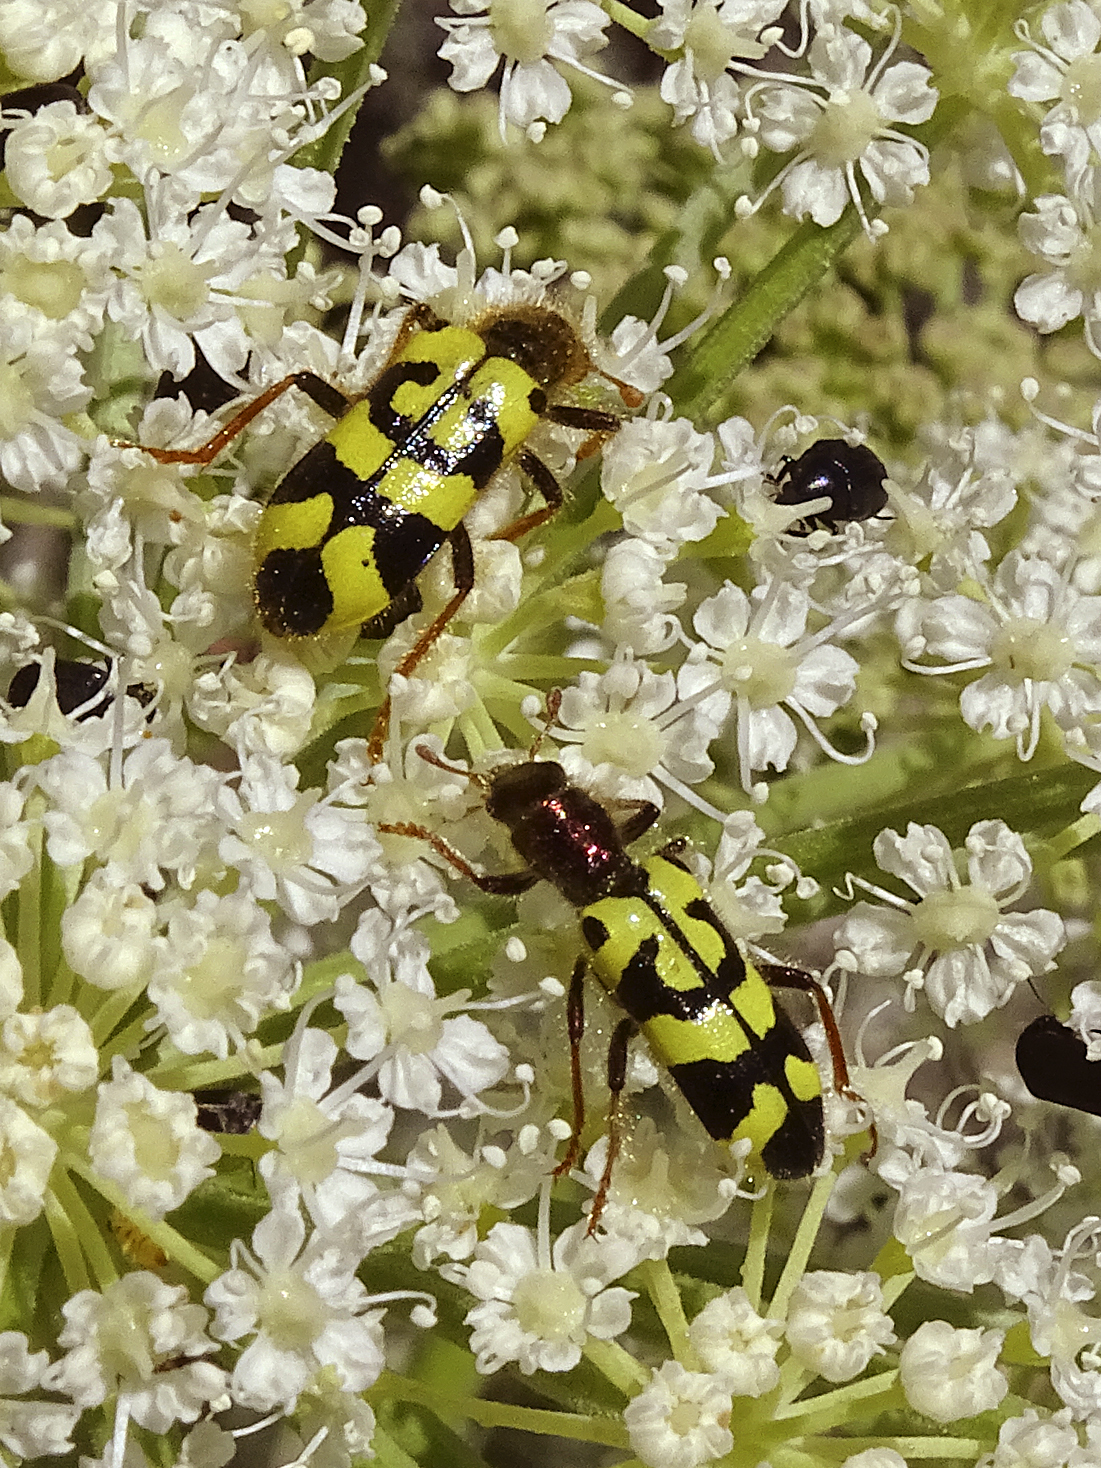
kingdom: Animalia
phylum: Arthropoda
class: Insecta
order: Coleoptera
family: Cleridae
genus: Trichodes
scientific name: Trichodes ornatus
